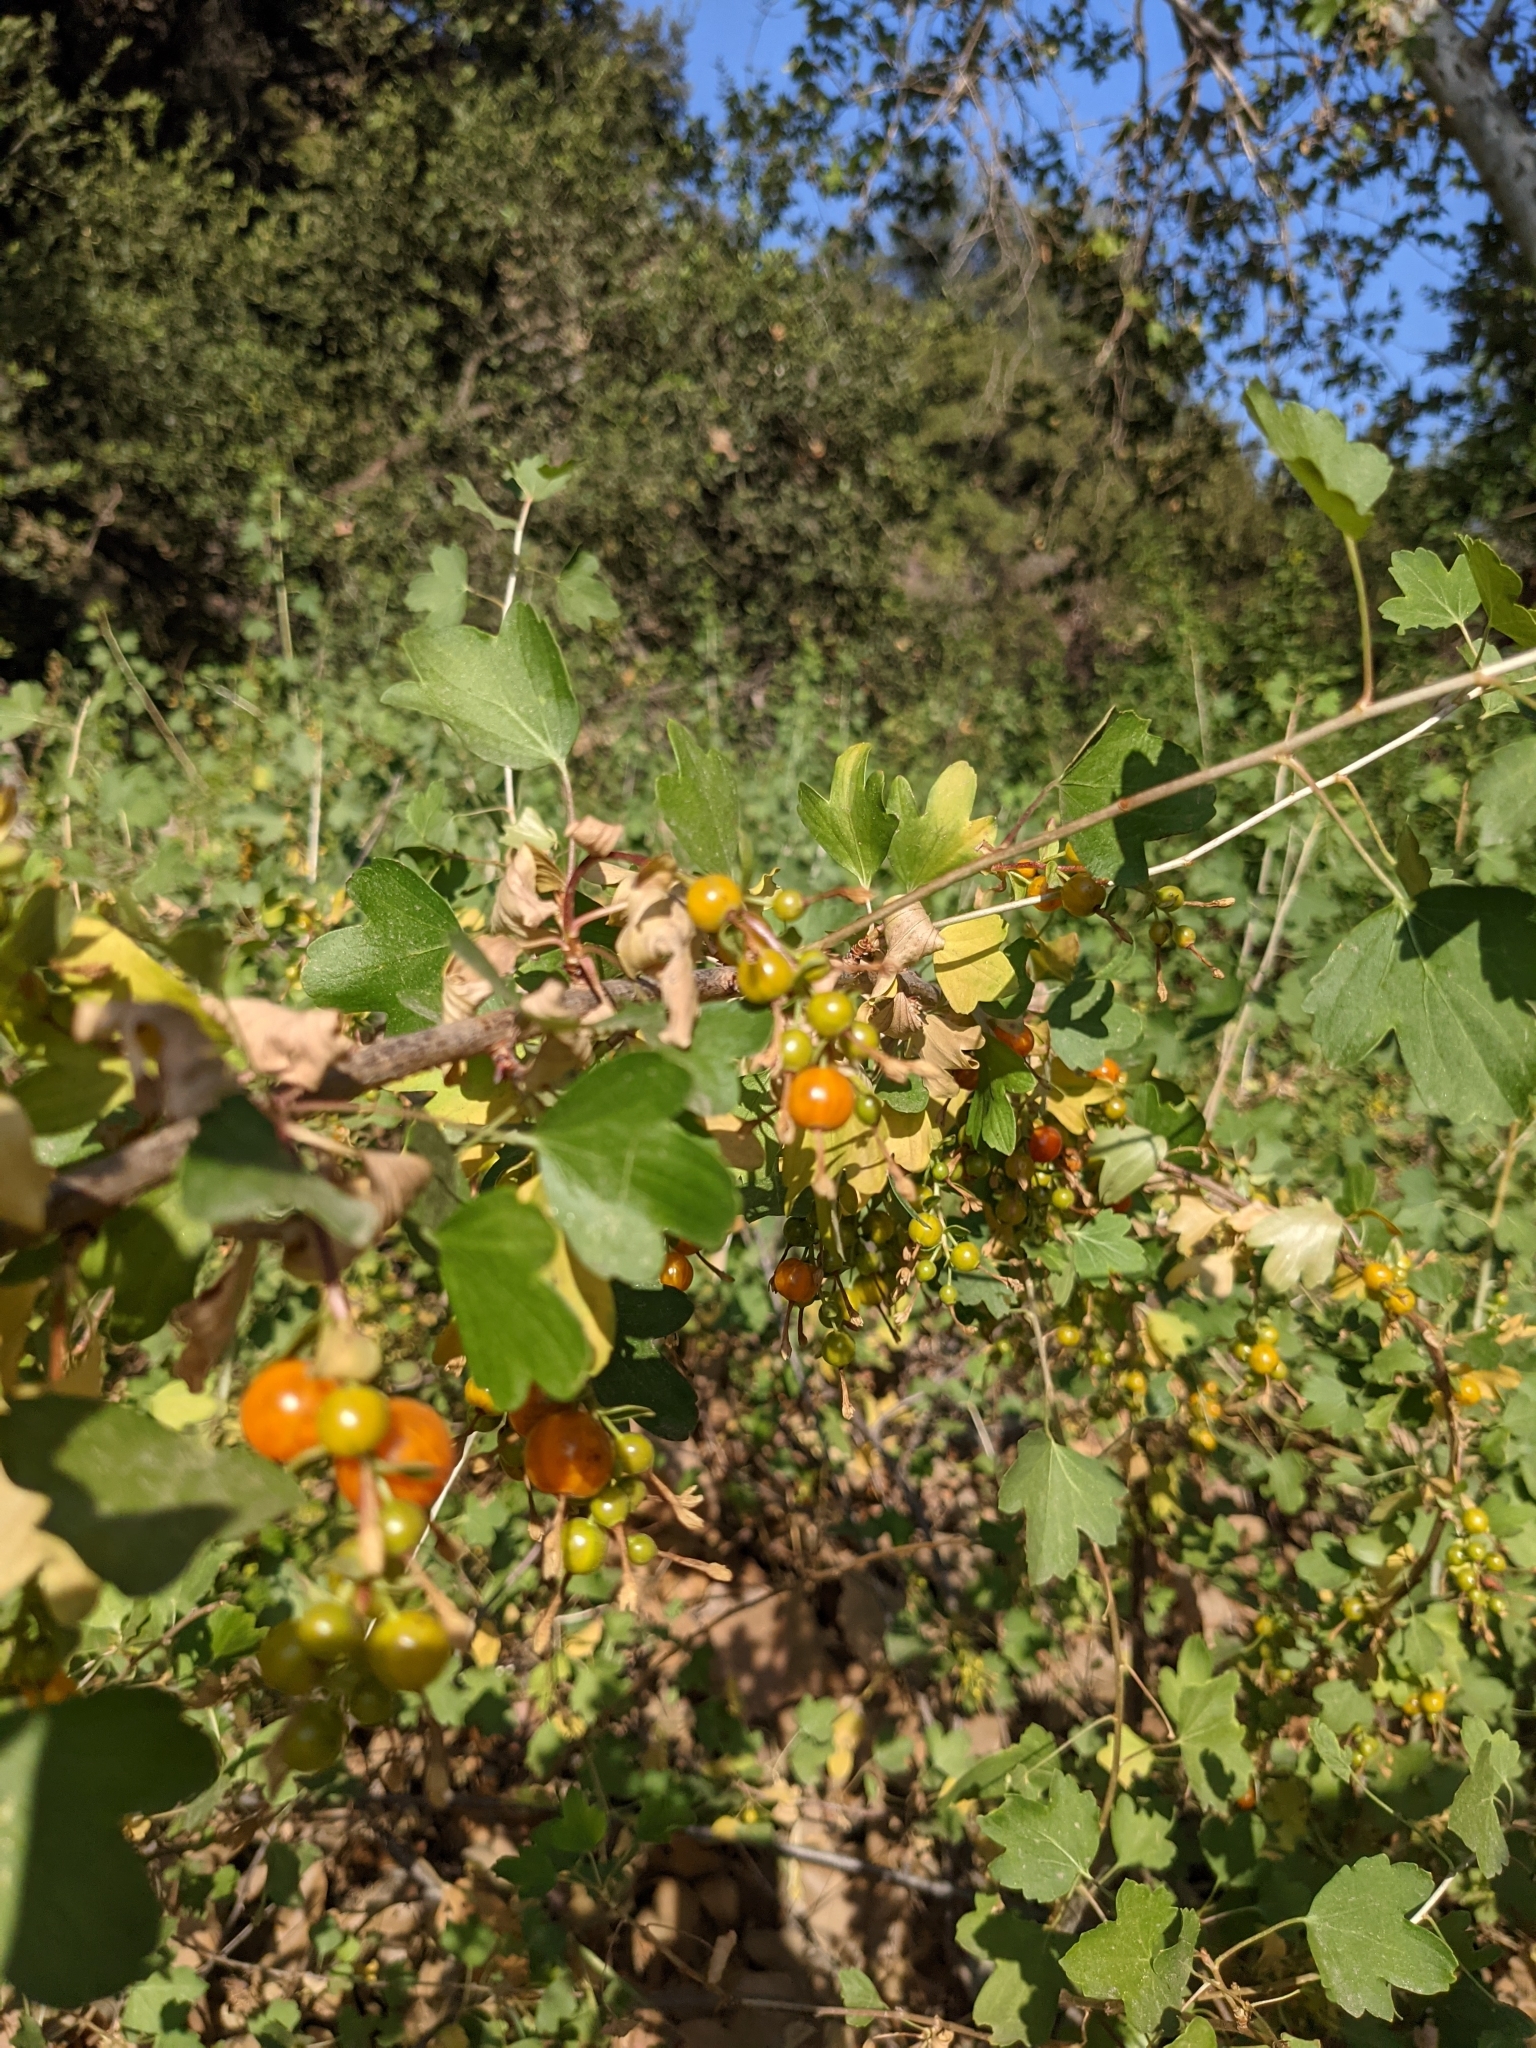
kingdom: Plantae
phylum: Tracheophyta
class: Magnoliopsida
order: Saxifragales
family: Grossulariaceae
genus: Ribes
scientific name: Ribes aureum
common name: Golden currant
